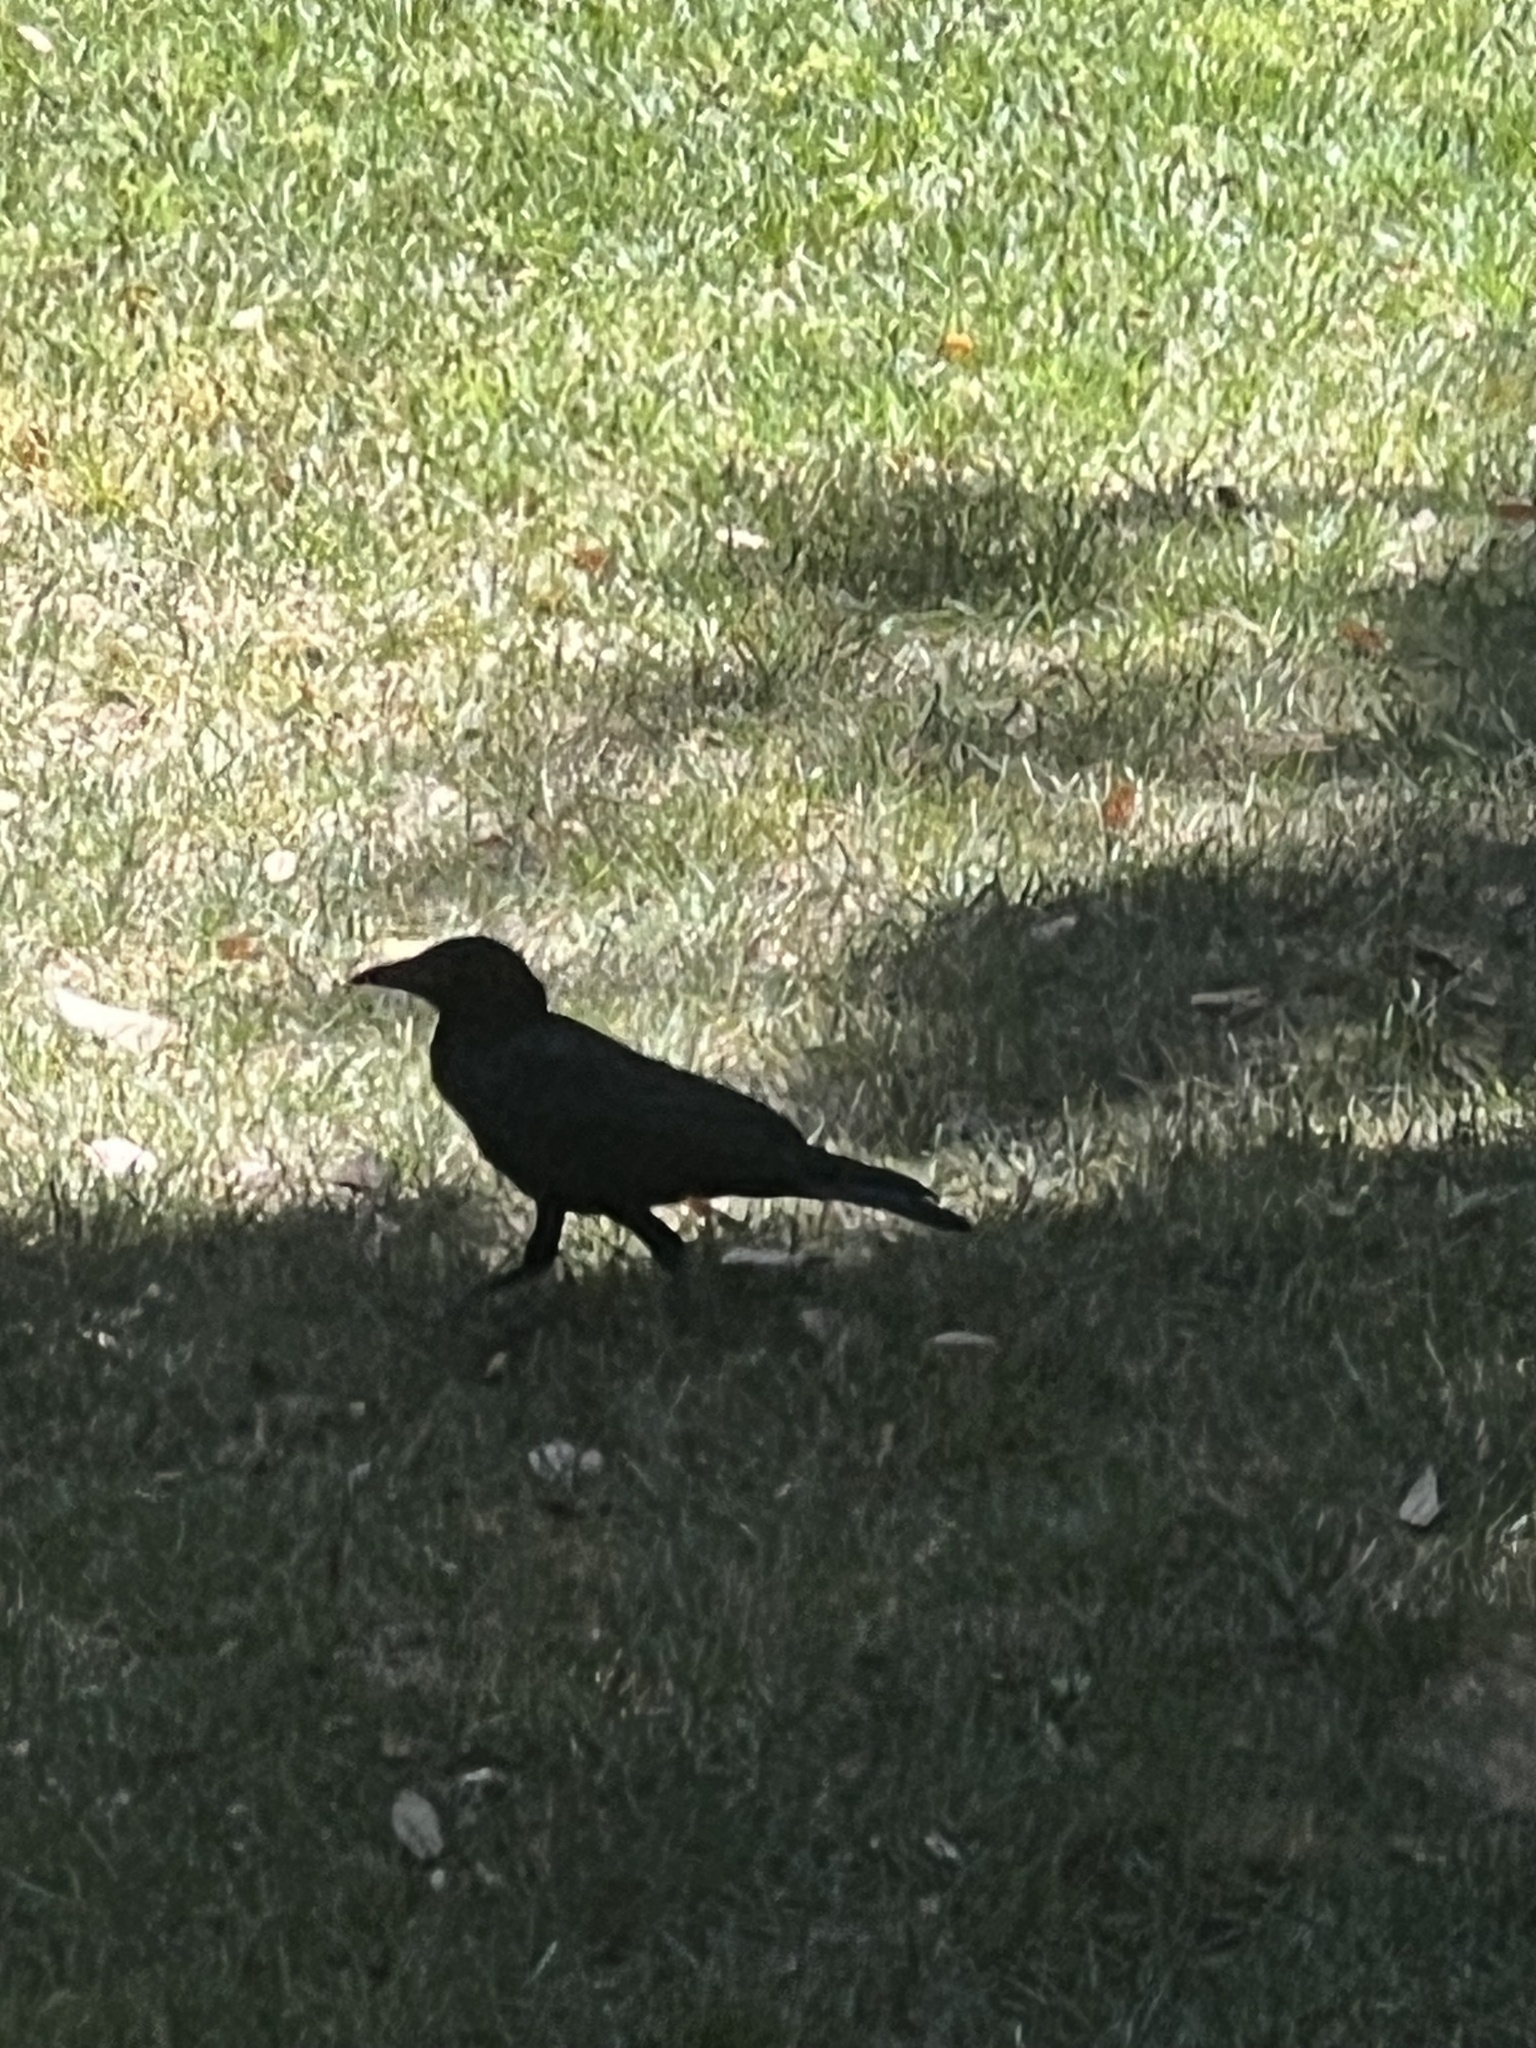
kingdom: Animalia
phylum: Chordata
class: Aves
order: Passeriformes
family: Corvidae
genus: Corvus
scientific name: Corvus brachyrhynchos
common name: American crow
